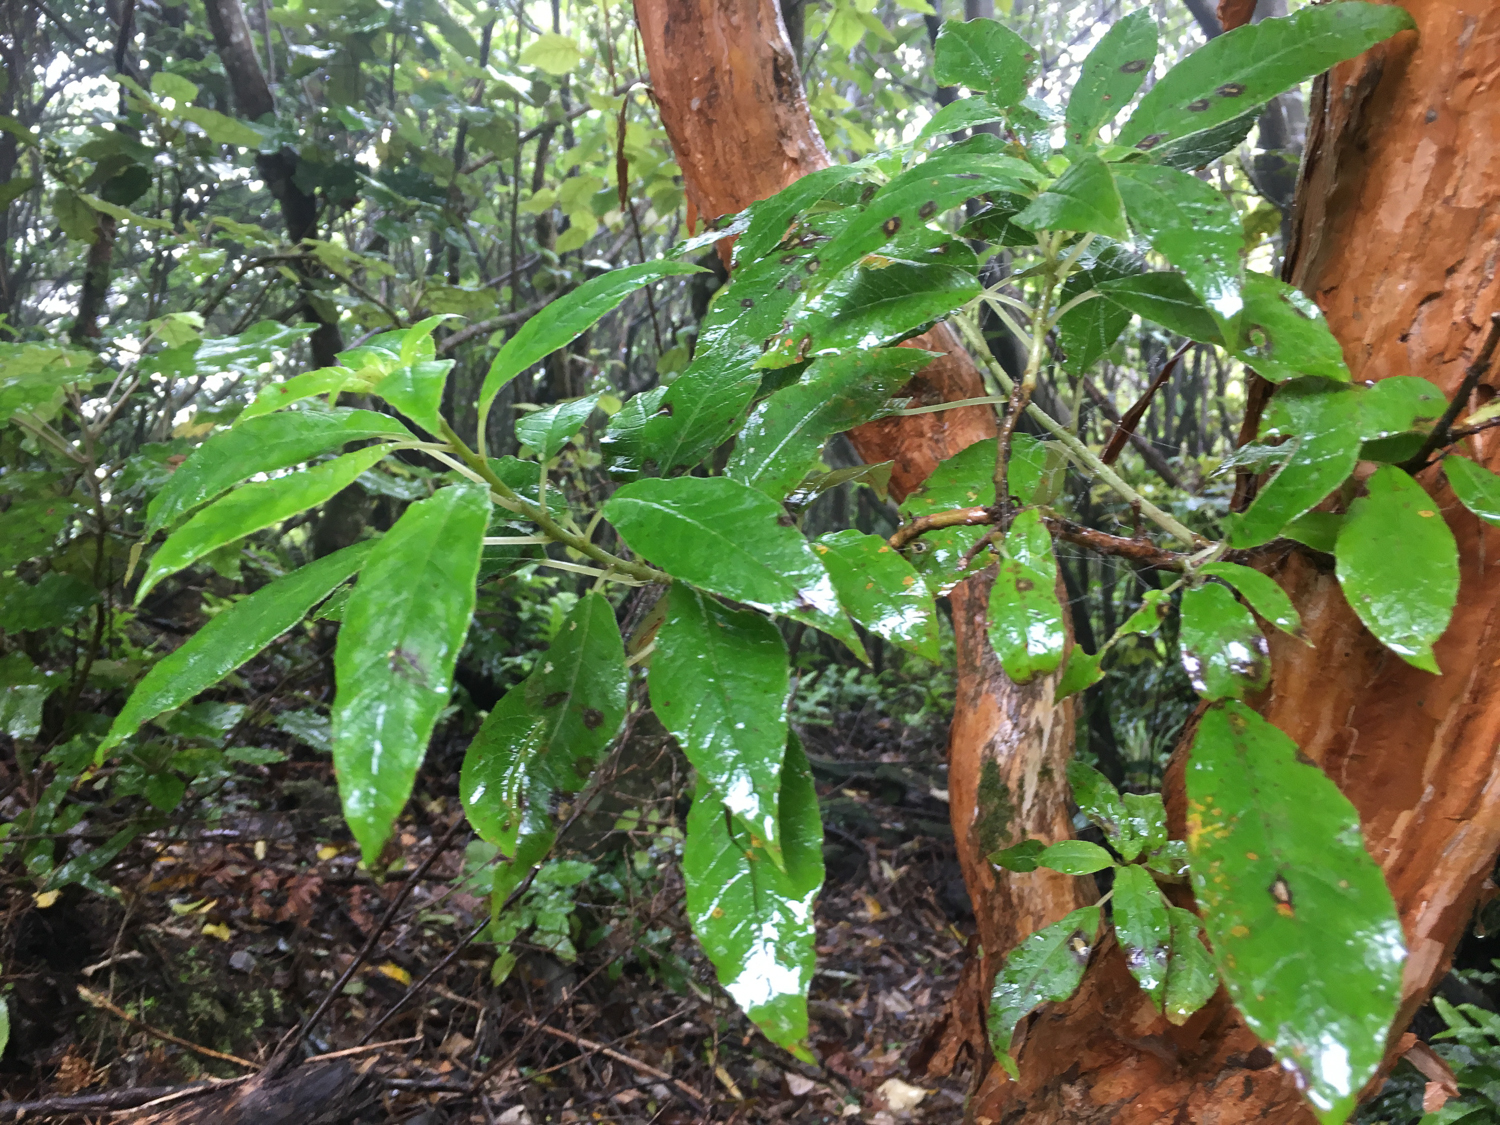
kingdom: Plantae
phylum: Tracheophyta
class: Magnoliopsida
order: Myrtales
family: Onagraceae
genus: Fuchsia
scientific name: Fuchsia excorticata
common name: Tree fuchsia
